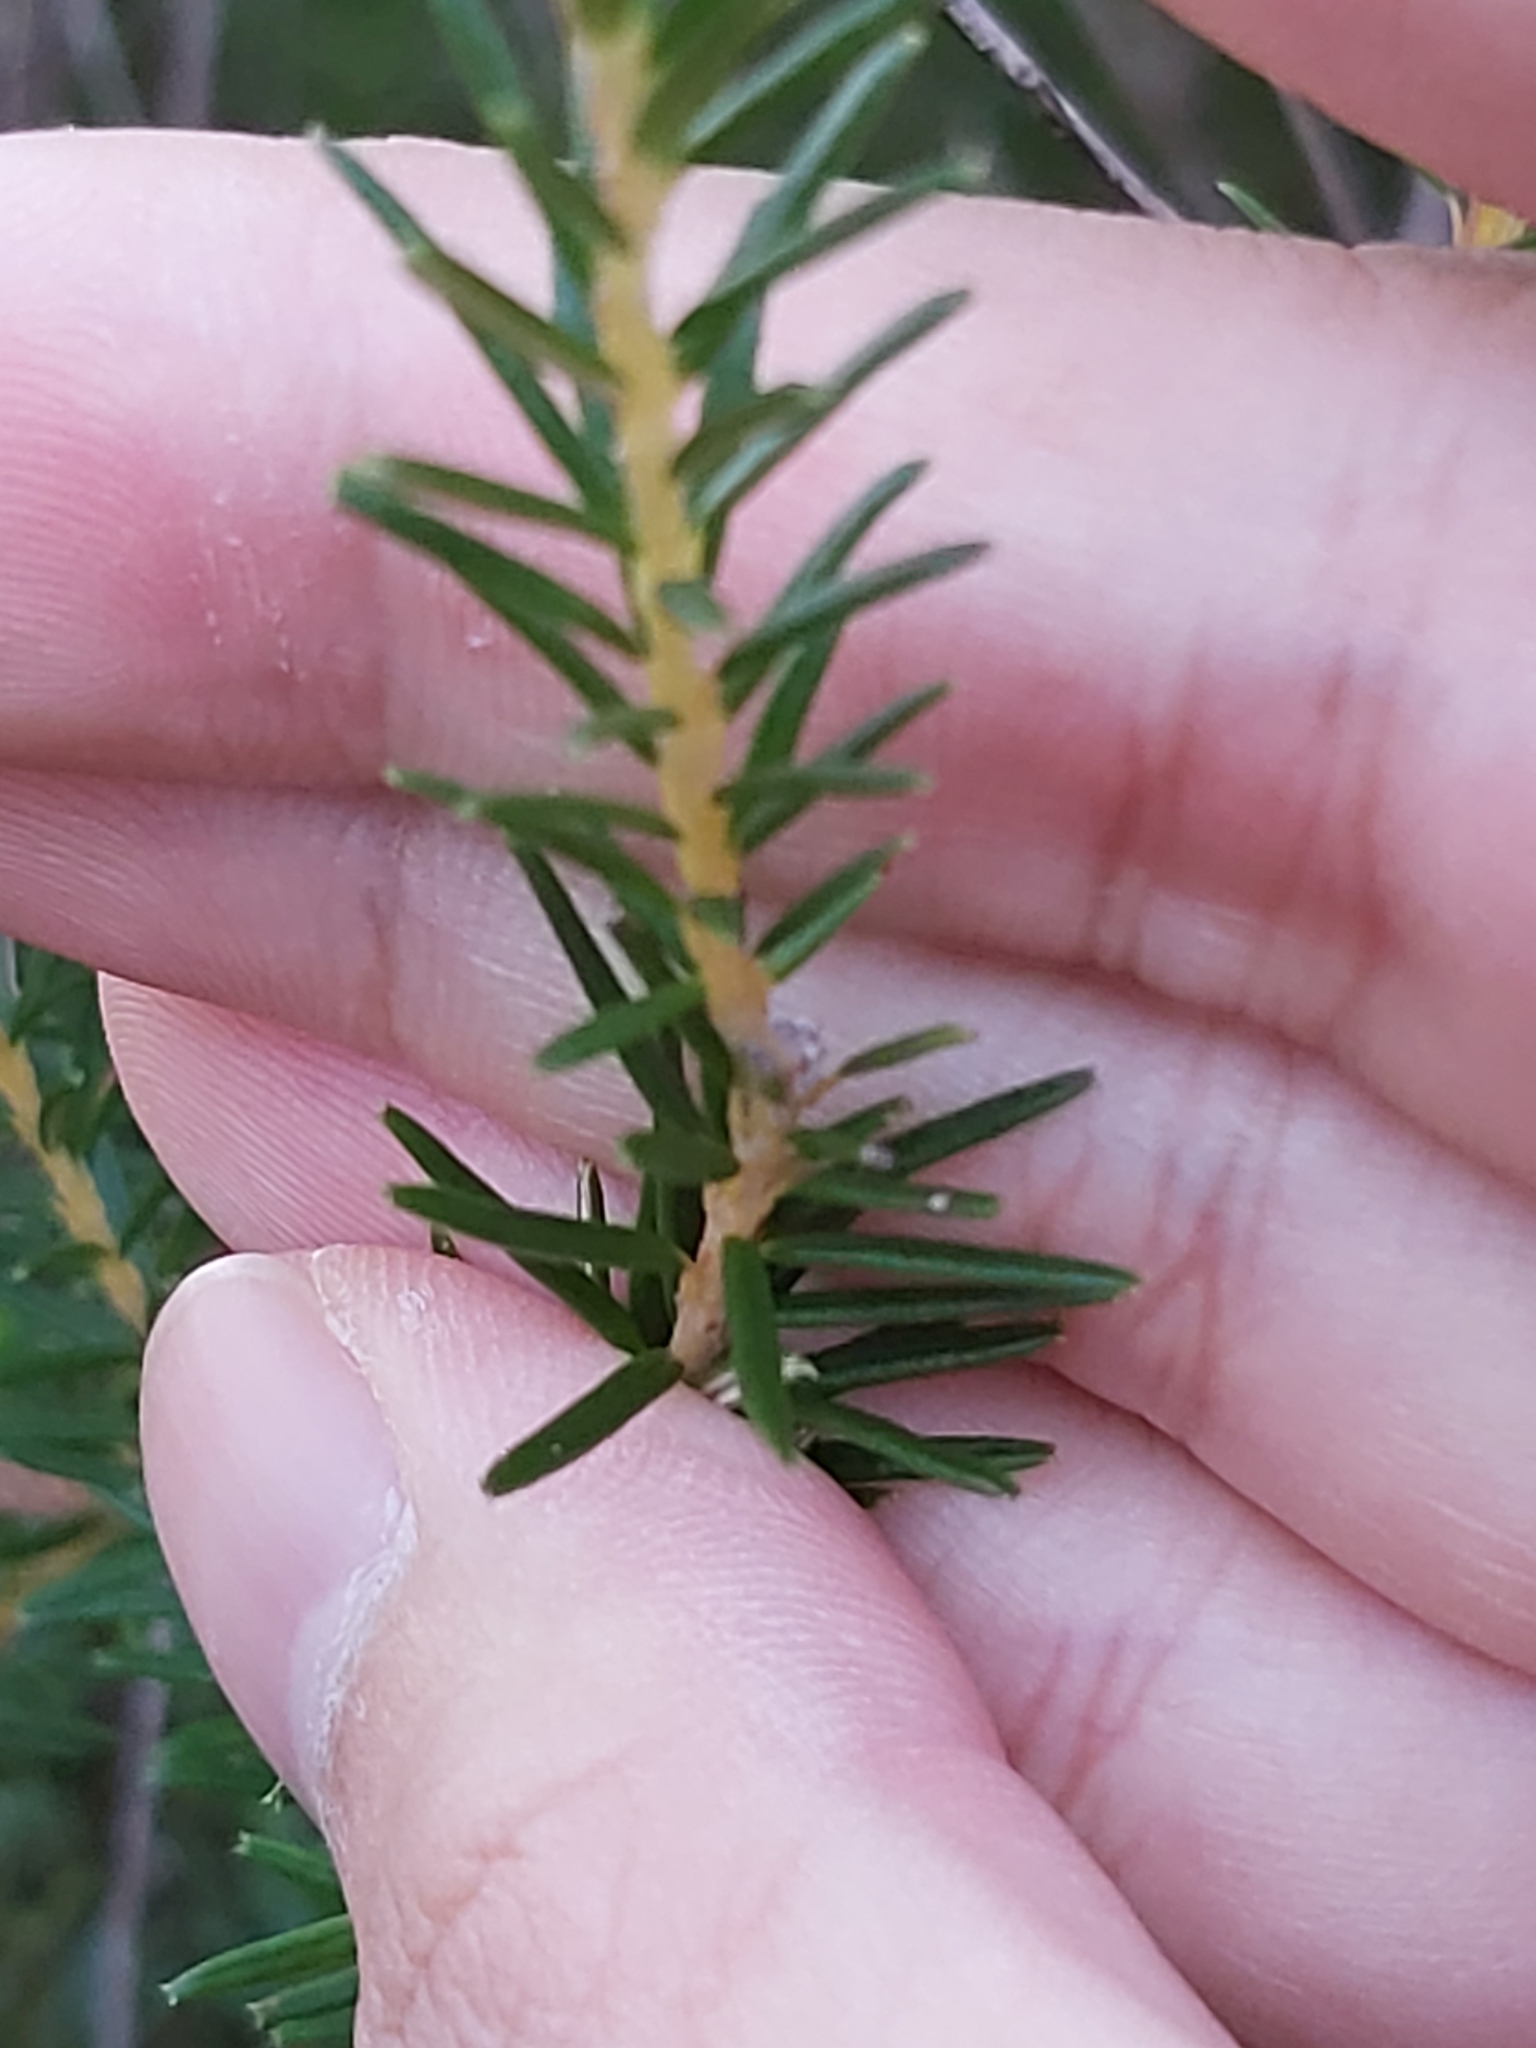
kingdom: Plantae
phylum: Tracheophyta
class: Magnoliopsida
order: Proteales
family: Proteaceae
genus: Banksia
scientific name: Banksia ericifolia
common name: Heath-leaf banksia
